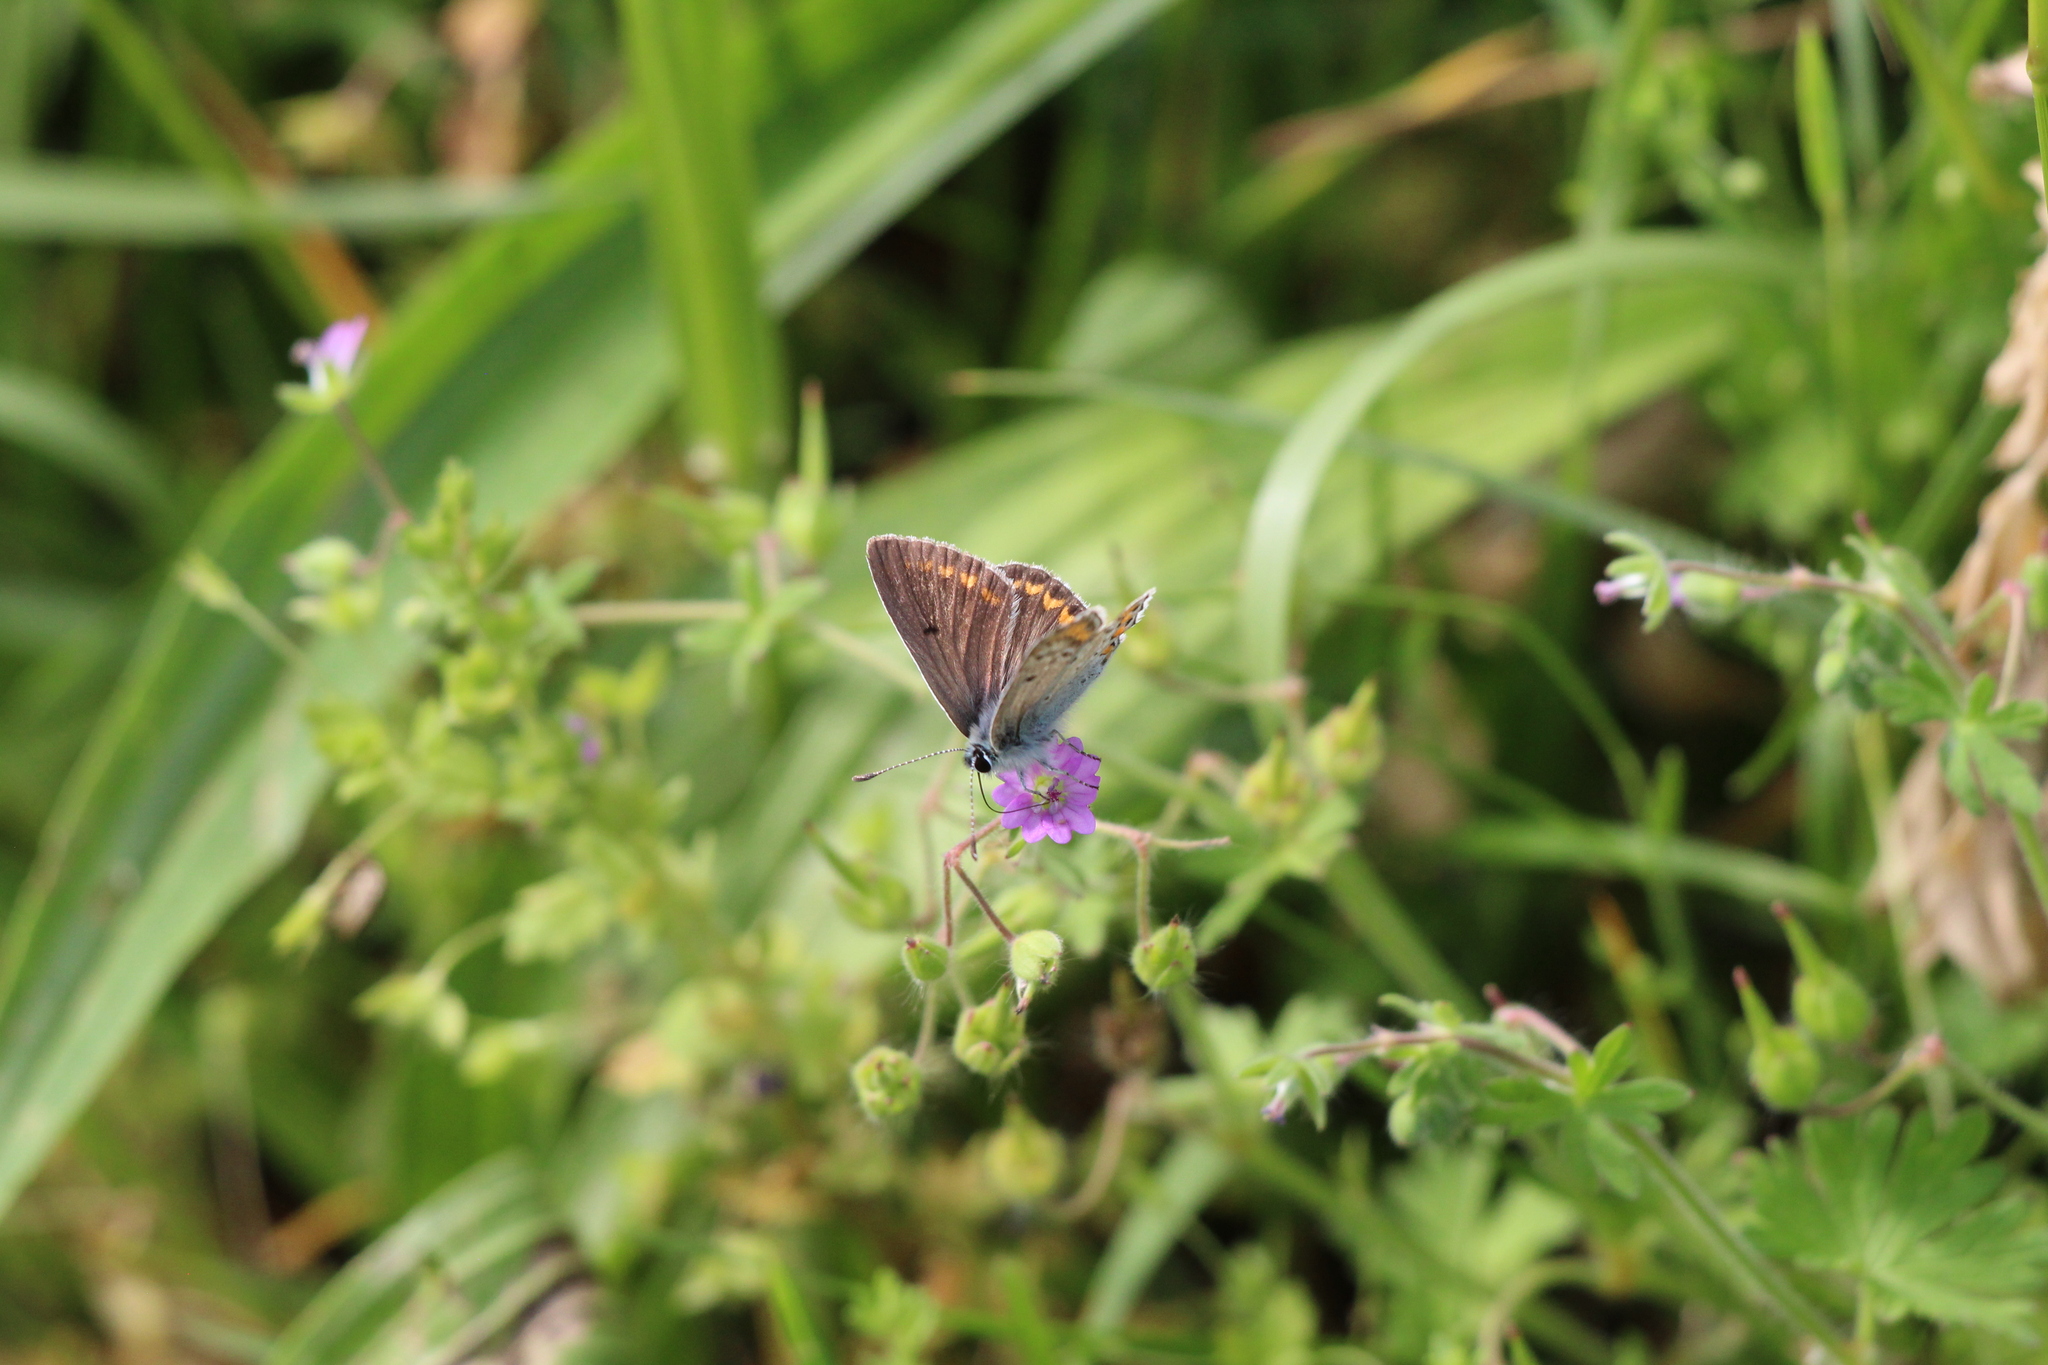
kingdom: Animalia
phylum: Arthropoda
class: Insecta
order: Lepidoptera
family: Lycaenidae
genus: Aricia
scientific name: Aricia agestis
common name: Brown argus
